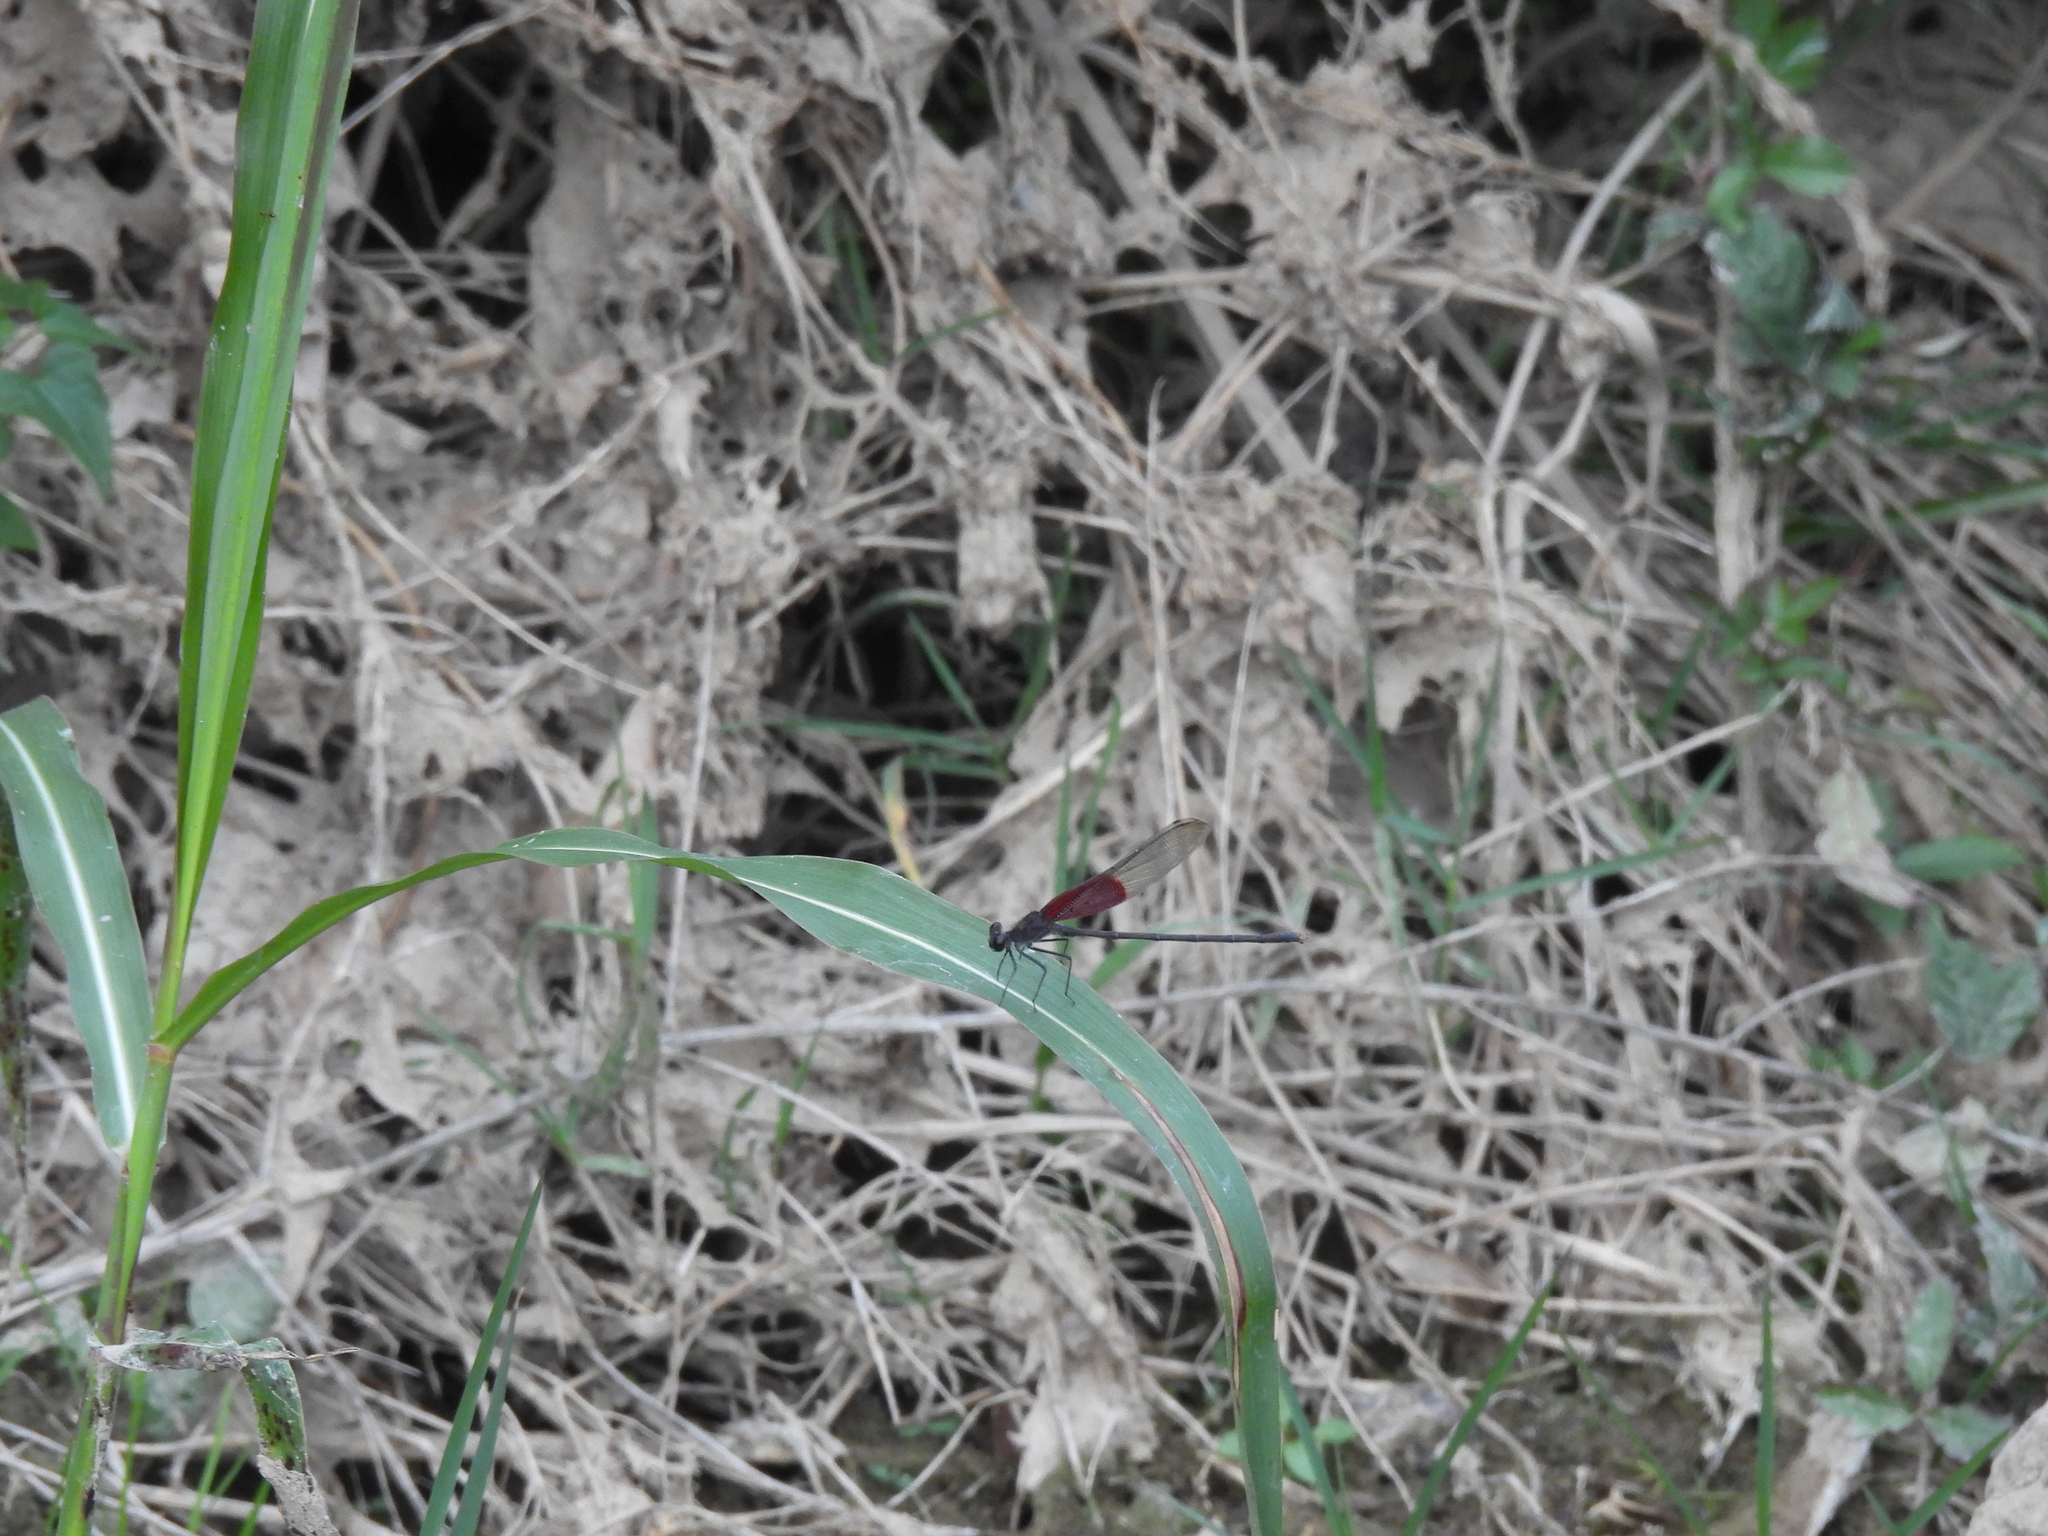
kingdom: Animalia
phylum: Arthropoda
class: Insecta
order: Odonata
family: Calopterygidae
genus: Hetaerina
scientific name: Hetaerina americana
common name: American rubyspot
